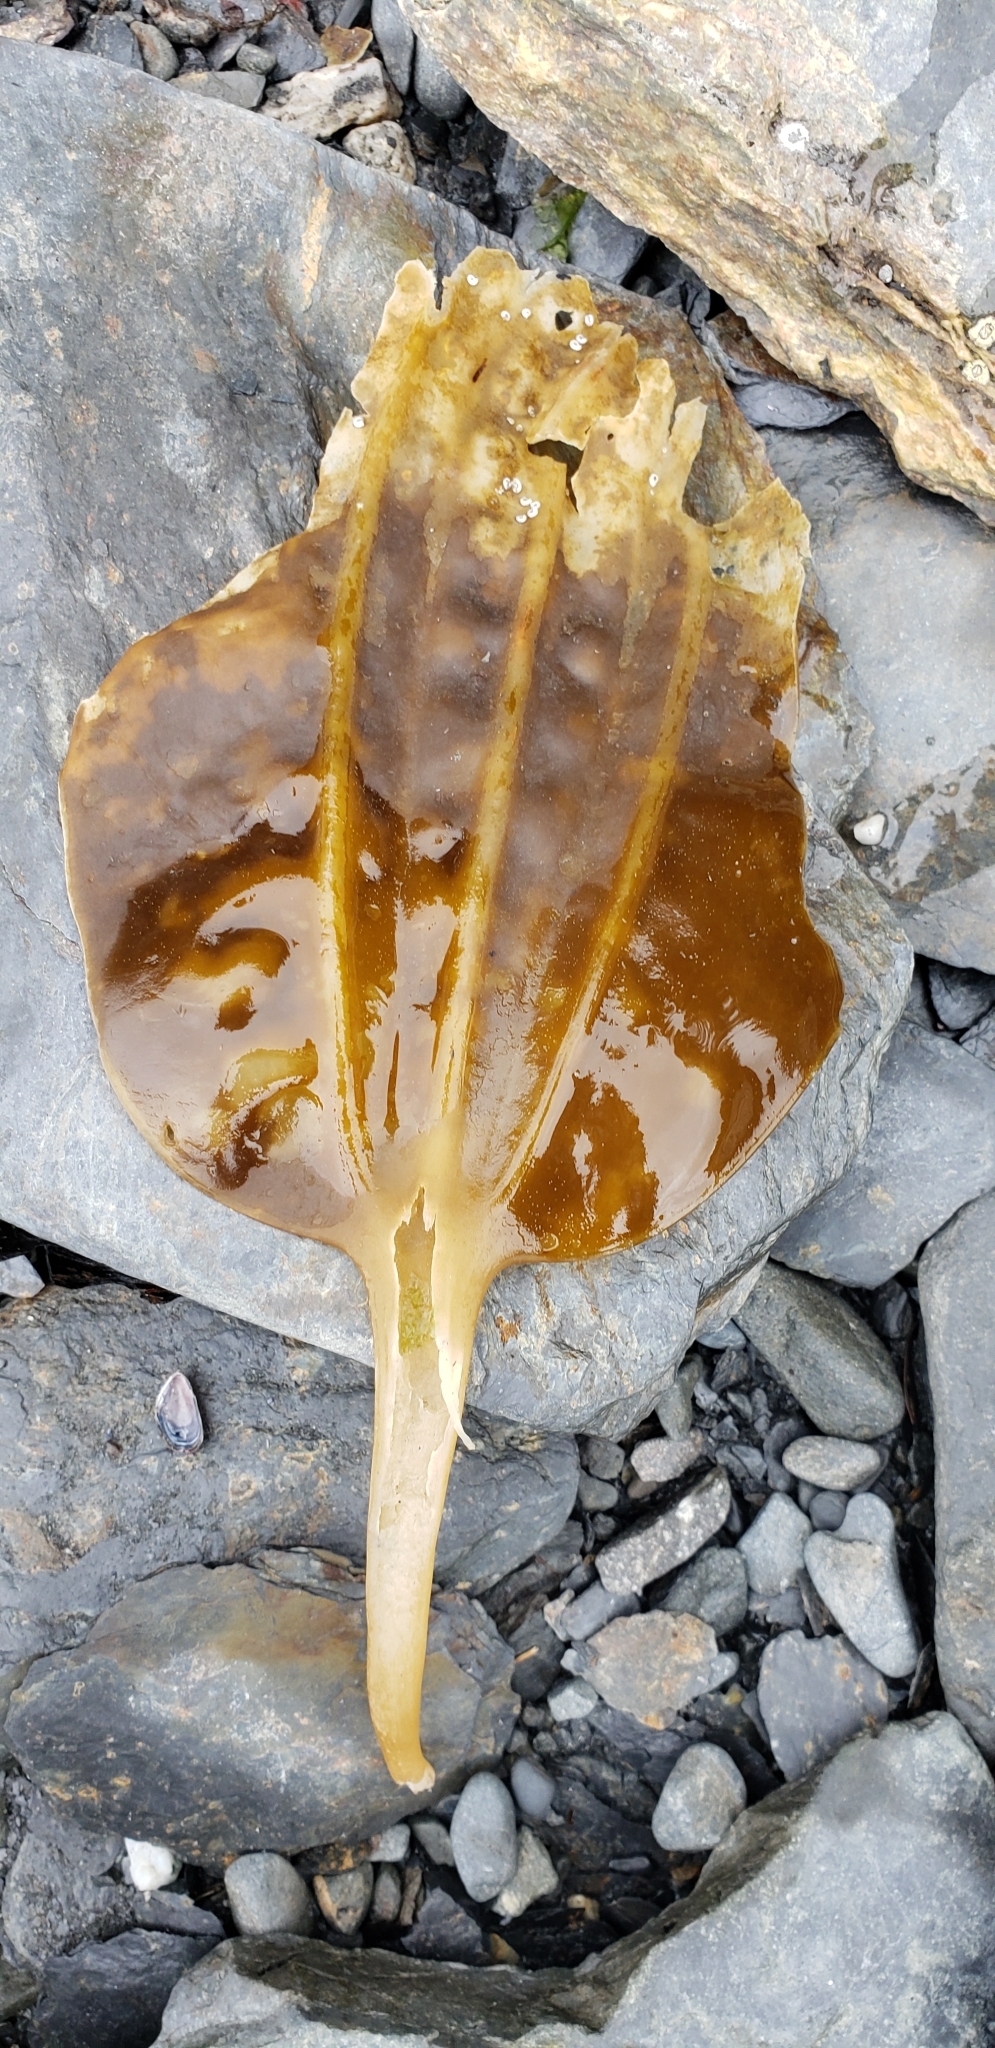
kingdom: Chromista
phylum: Ochrophyta
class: Phaeophyceae
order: Laminariales
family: Costariaceae
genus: Costaria
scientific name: Costaria costata
